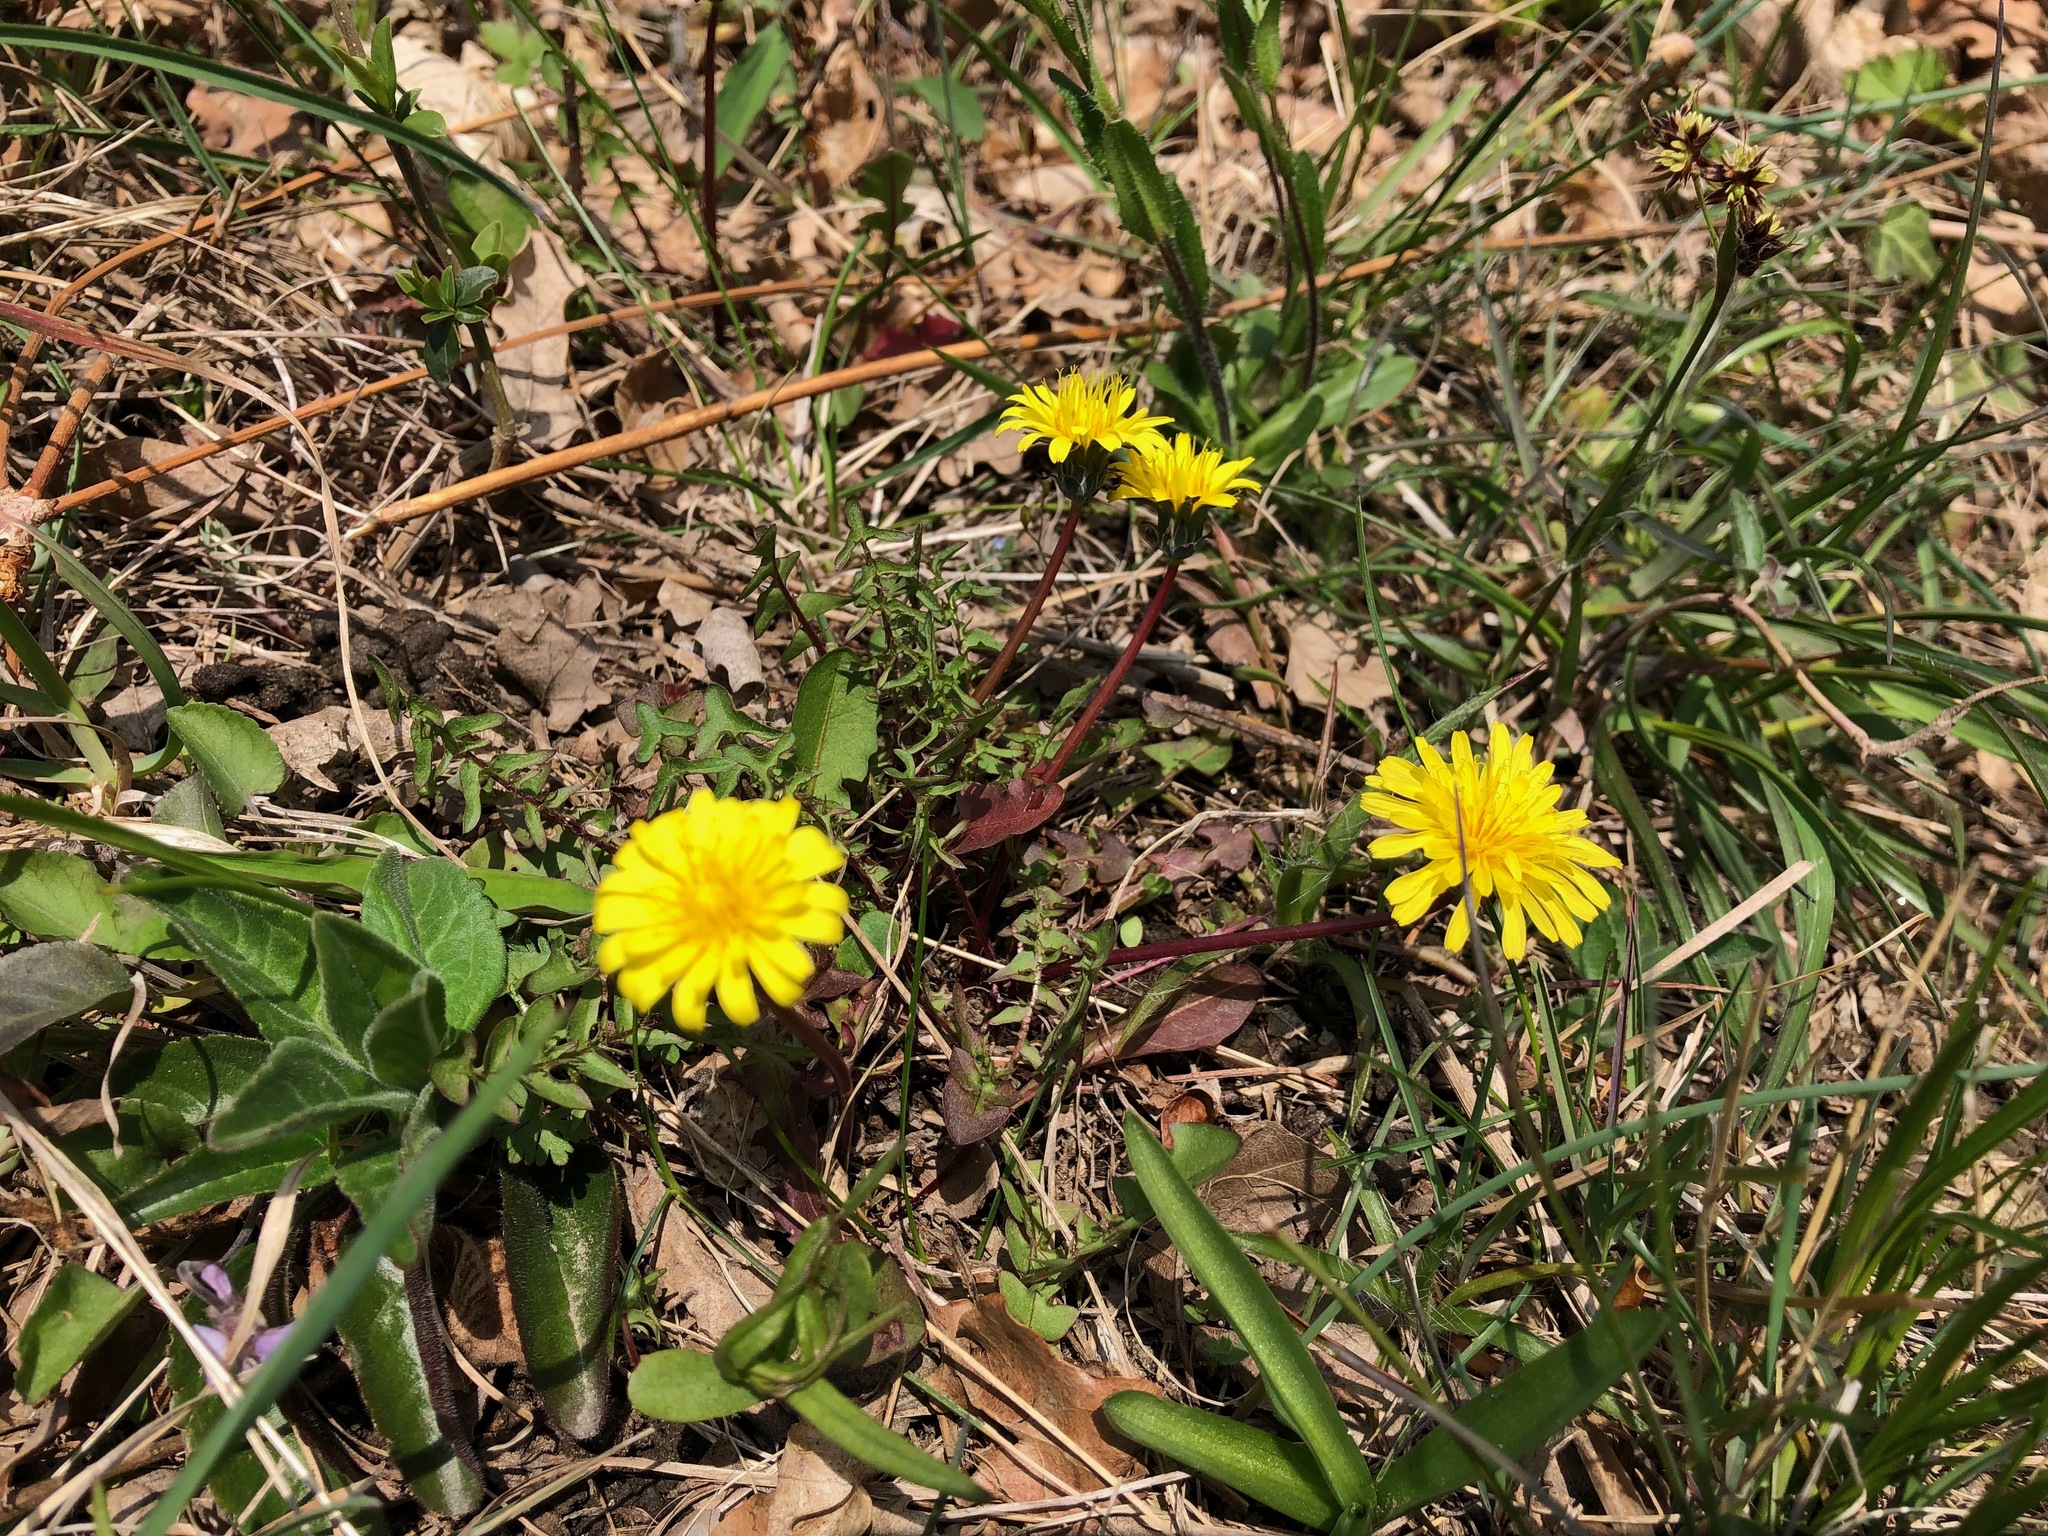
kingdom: Plantae
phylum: Tracheophyta
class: Magnoliopsida
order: Asterales
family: Asteraceae
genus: Taraxacum
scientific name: Taraxacum erythrospermum
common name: Rock dandelion
